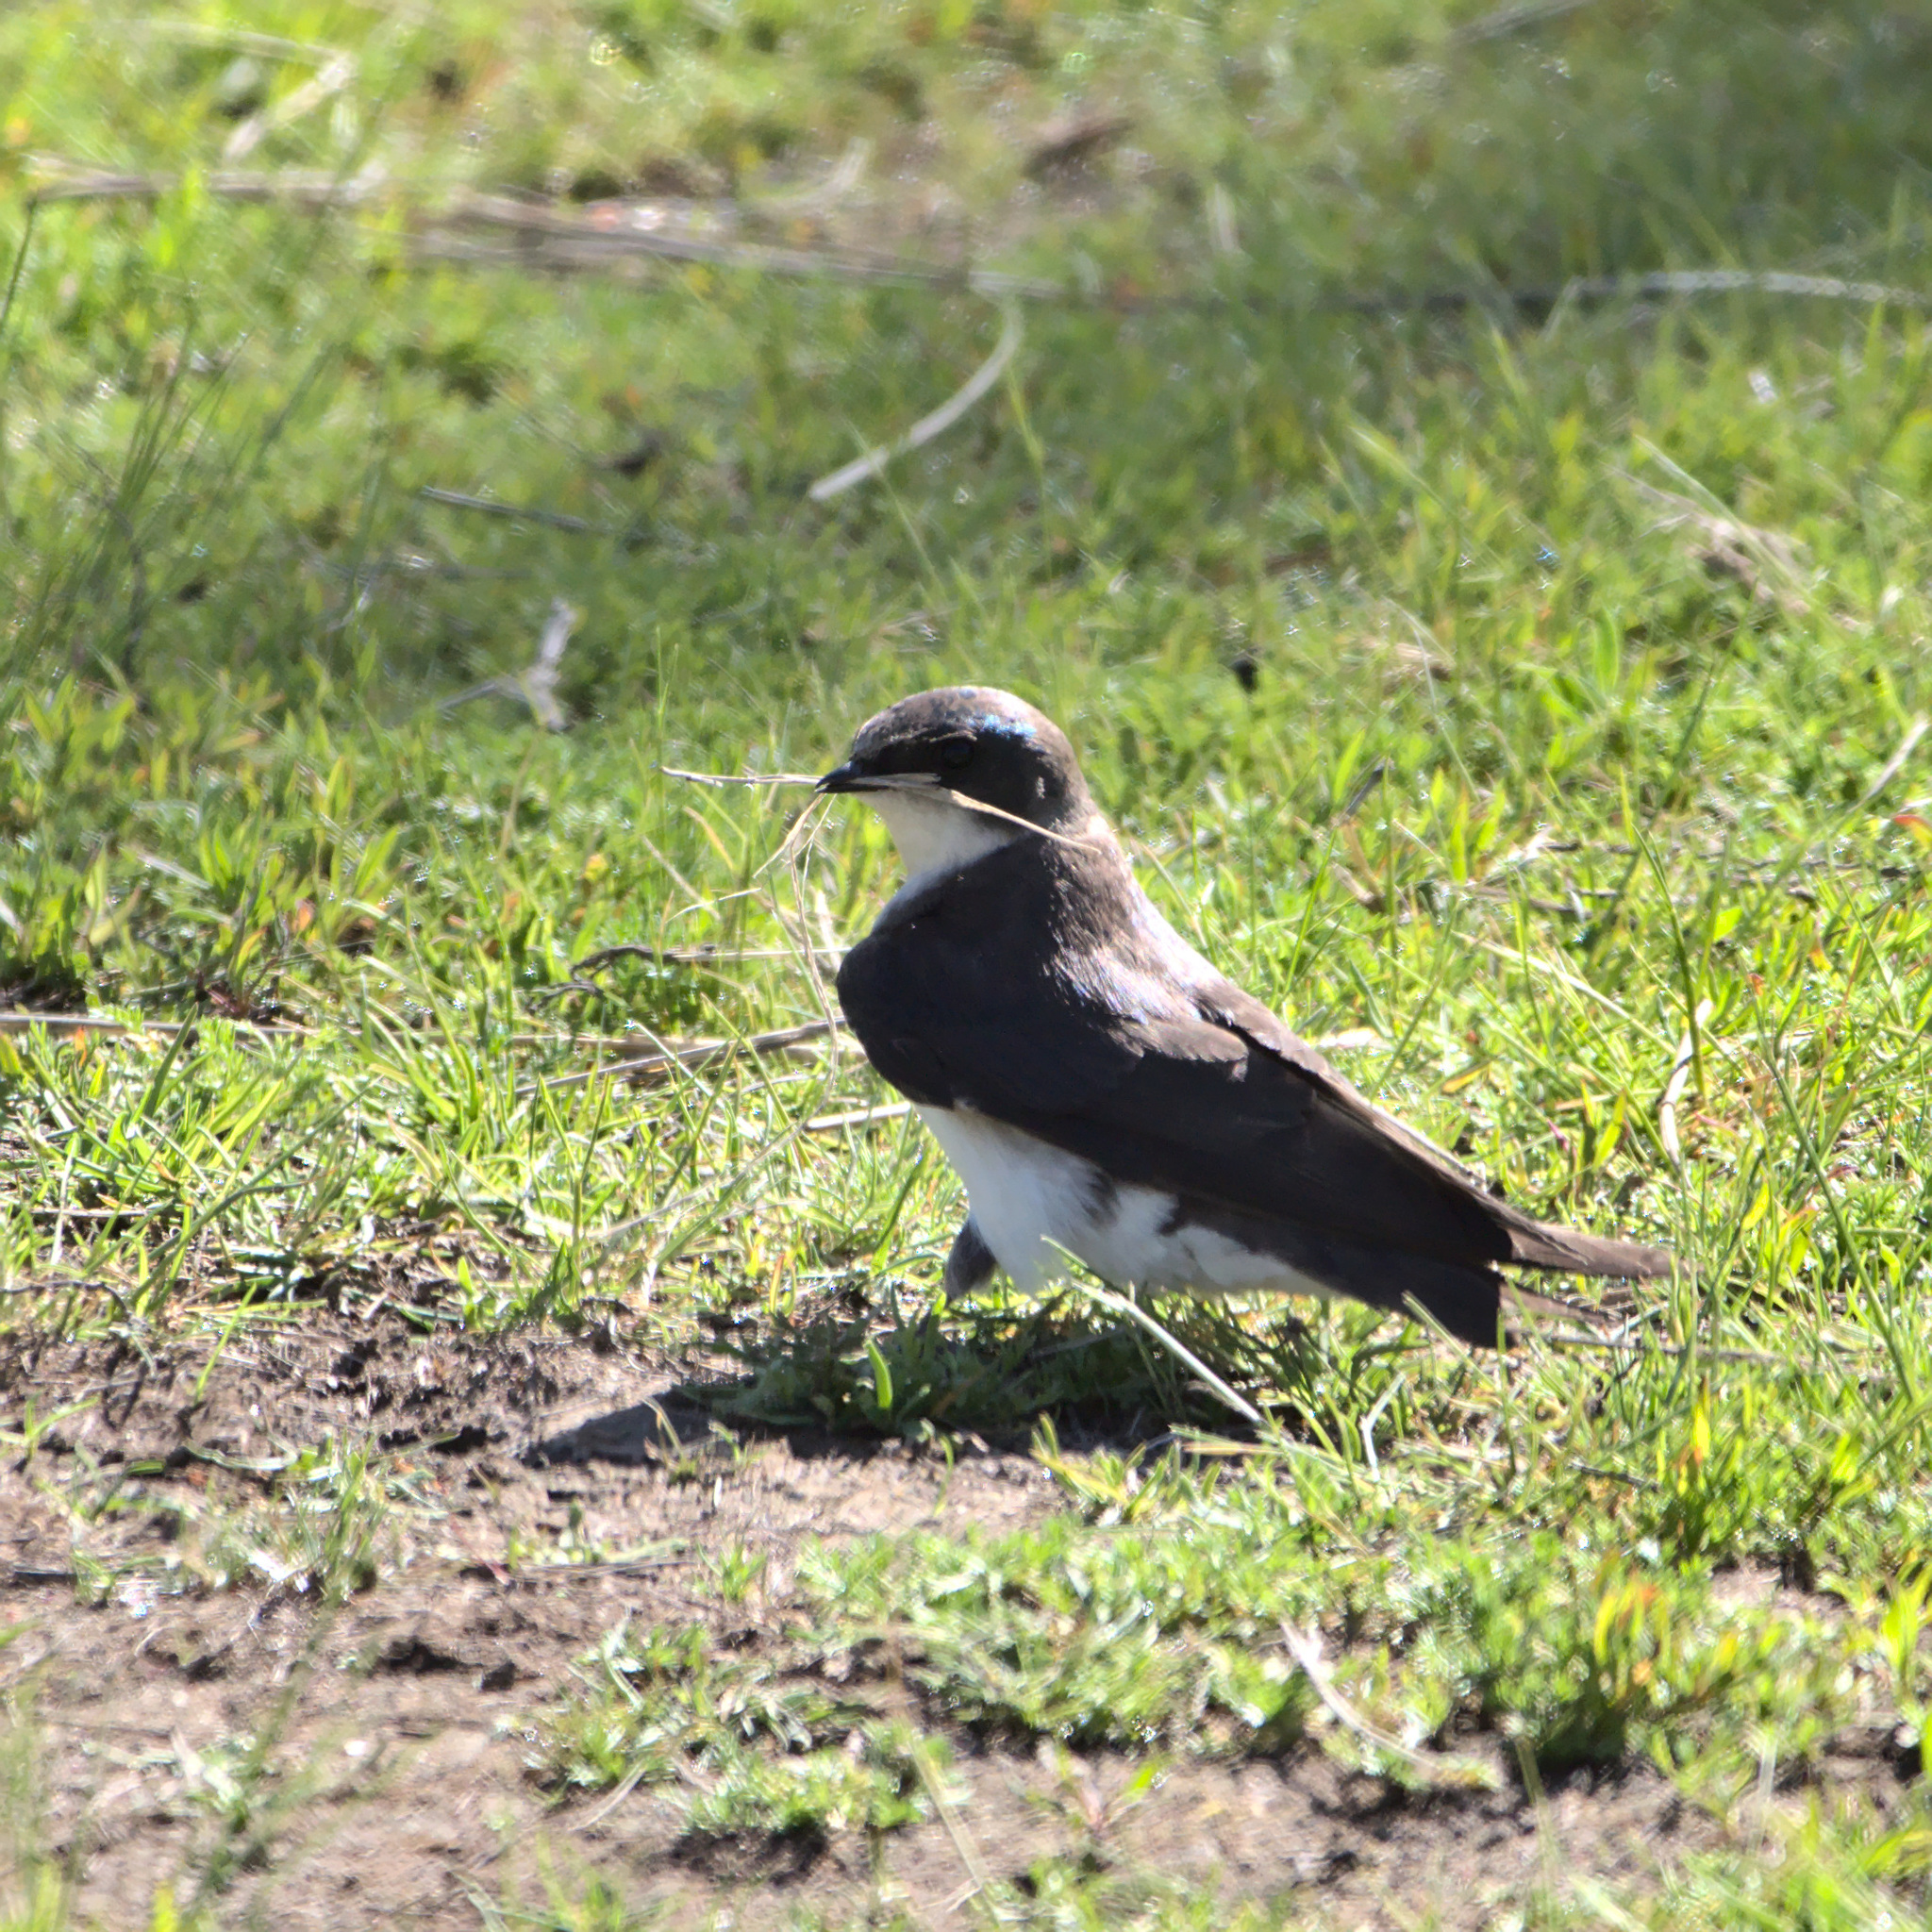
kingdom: Animalia
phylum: Chordata
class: Aves
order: Passeriformes
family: Hirundinidae
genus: Tachycineta
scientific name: Tachycineta bicolor
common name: Tree swallow
